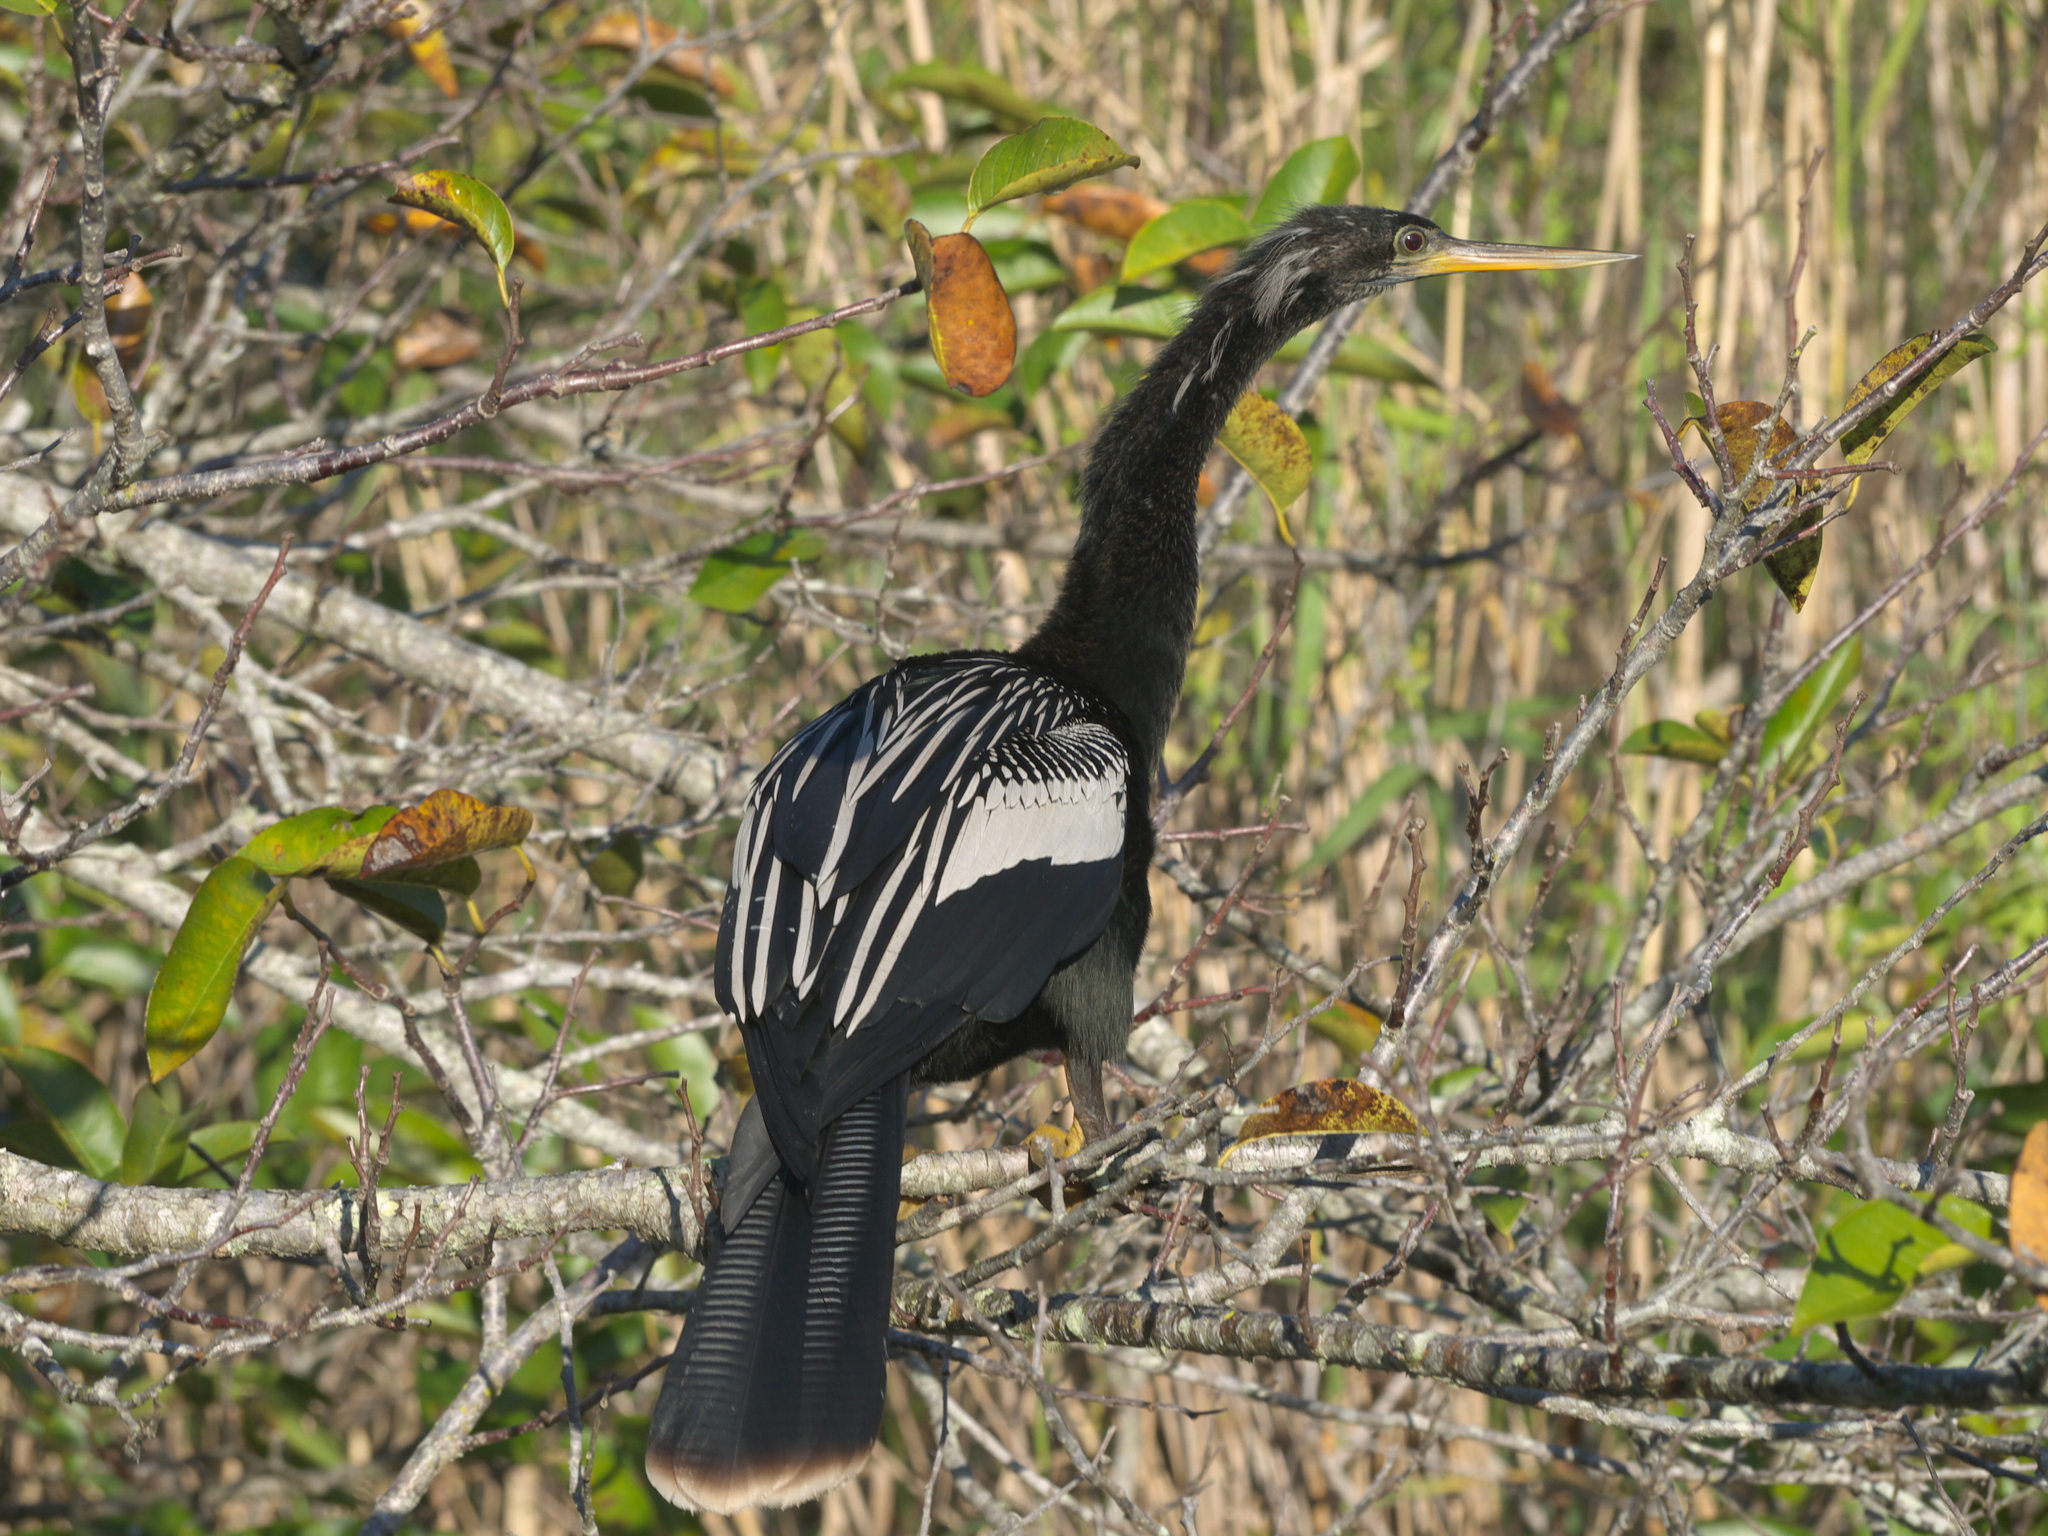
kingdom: Animalia
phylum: Chordata
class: Aves
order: Suliformes
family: Anhingidae
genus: Anhinga
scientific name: Anhinga anhinga
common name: Anhinga
